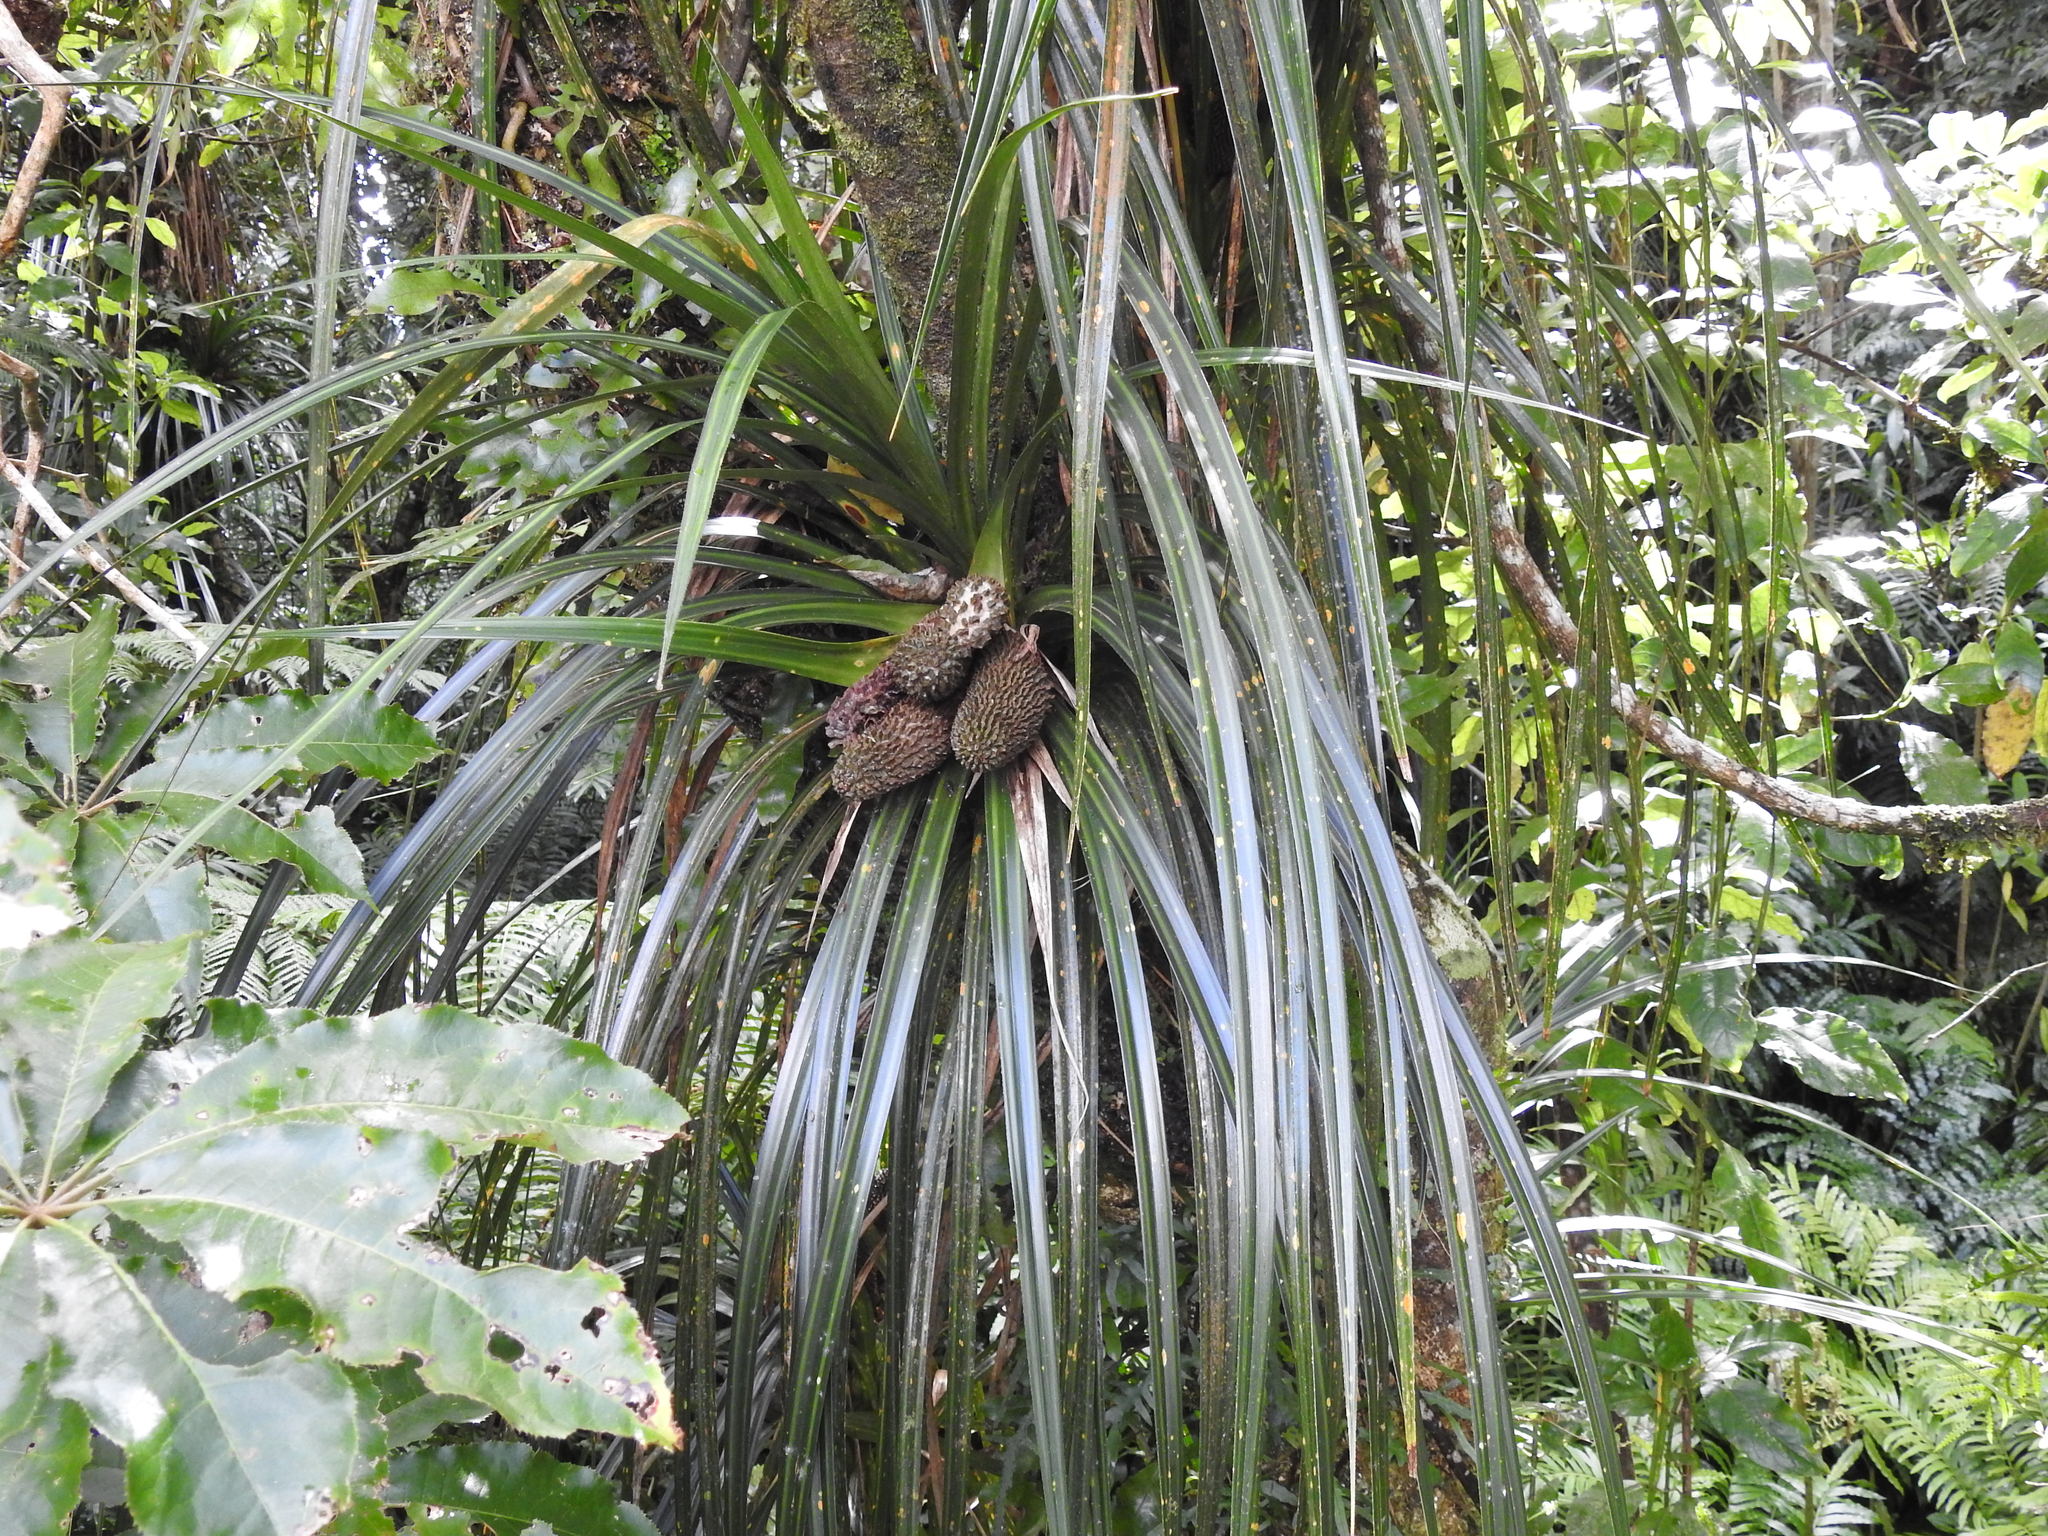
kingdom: Plantae
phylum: Tracheophyta
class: Liliopsida
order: Pandanales
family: Pandanaceae
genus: Freycinetia
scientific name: Freycinetia banksii
